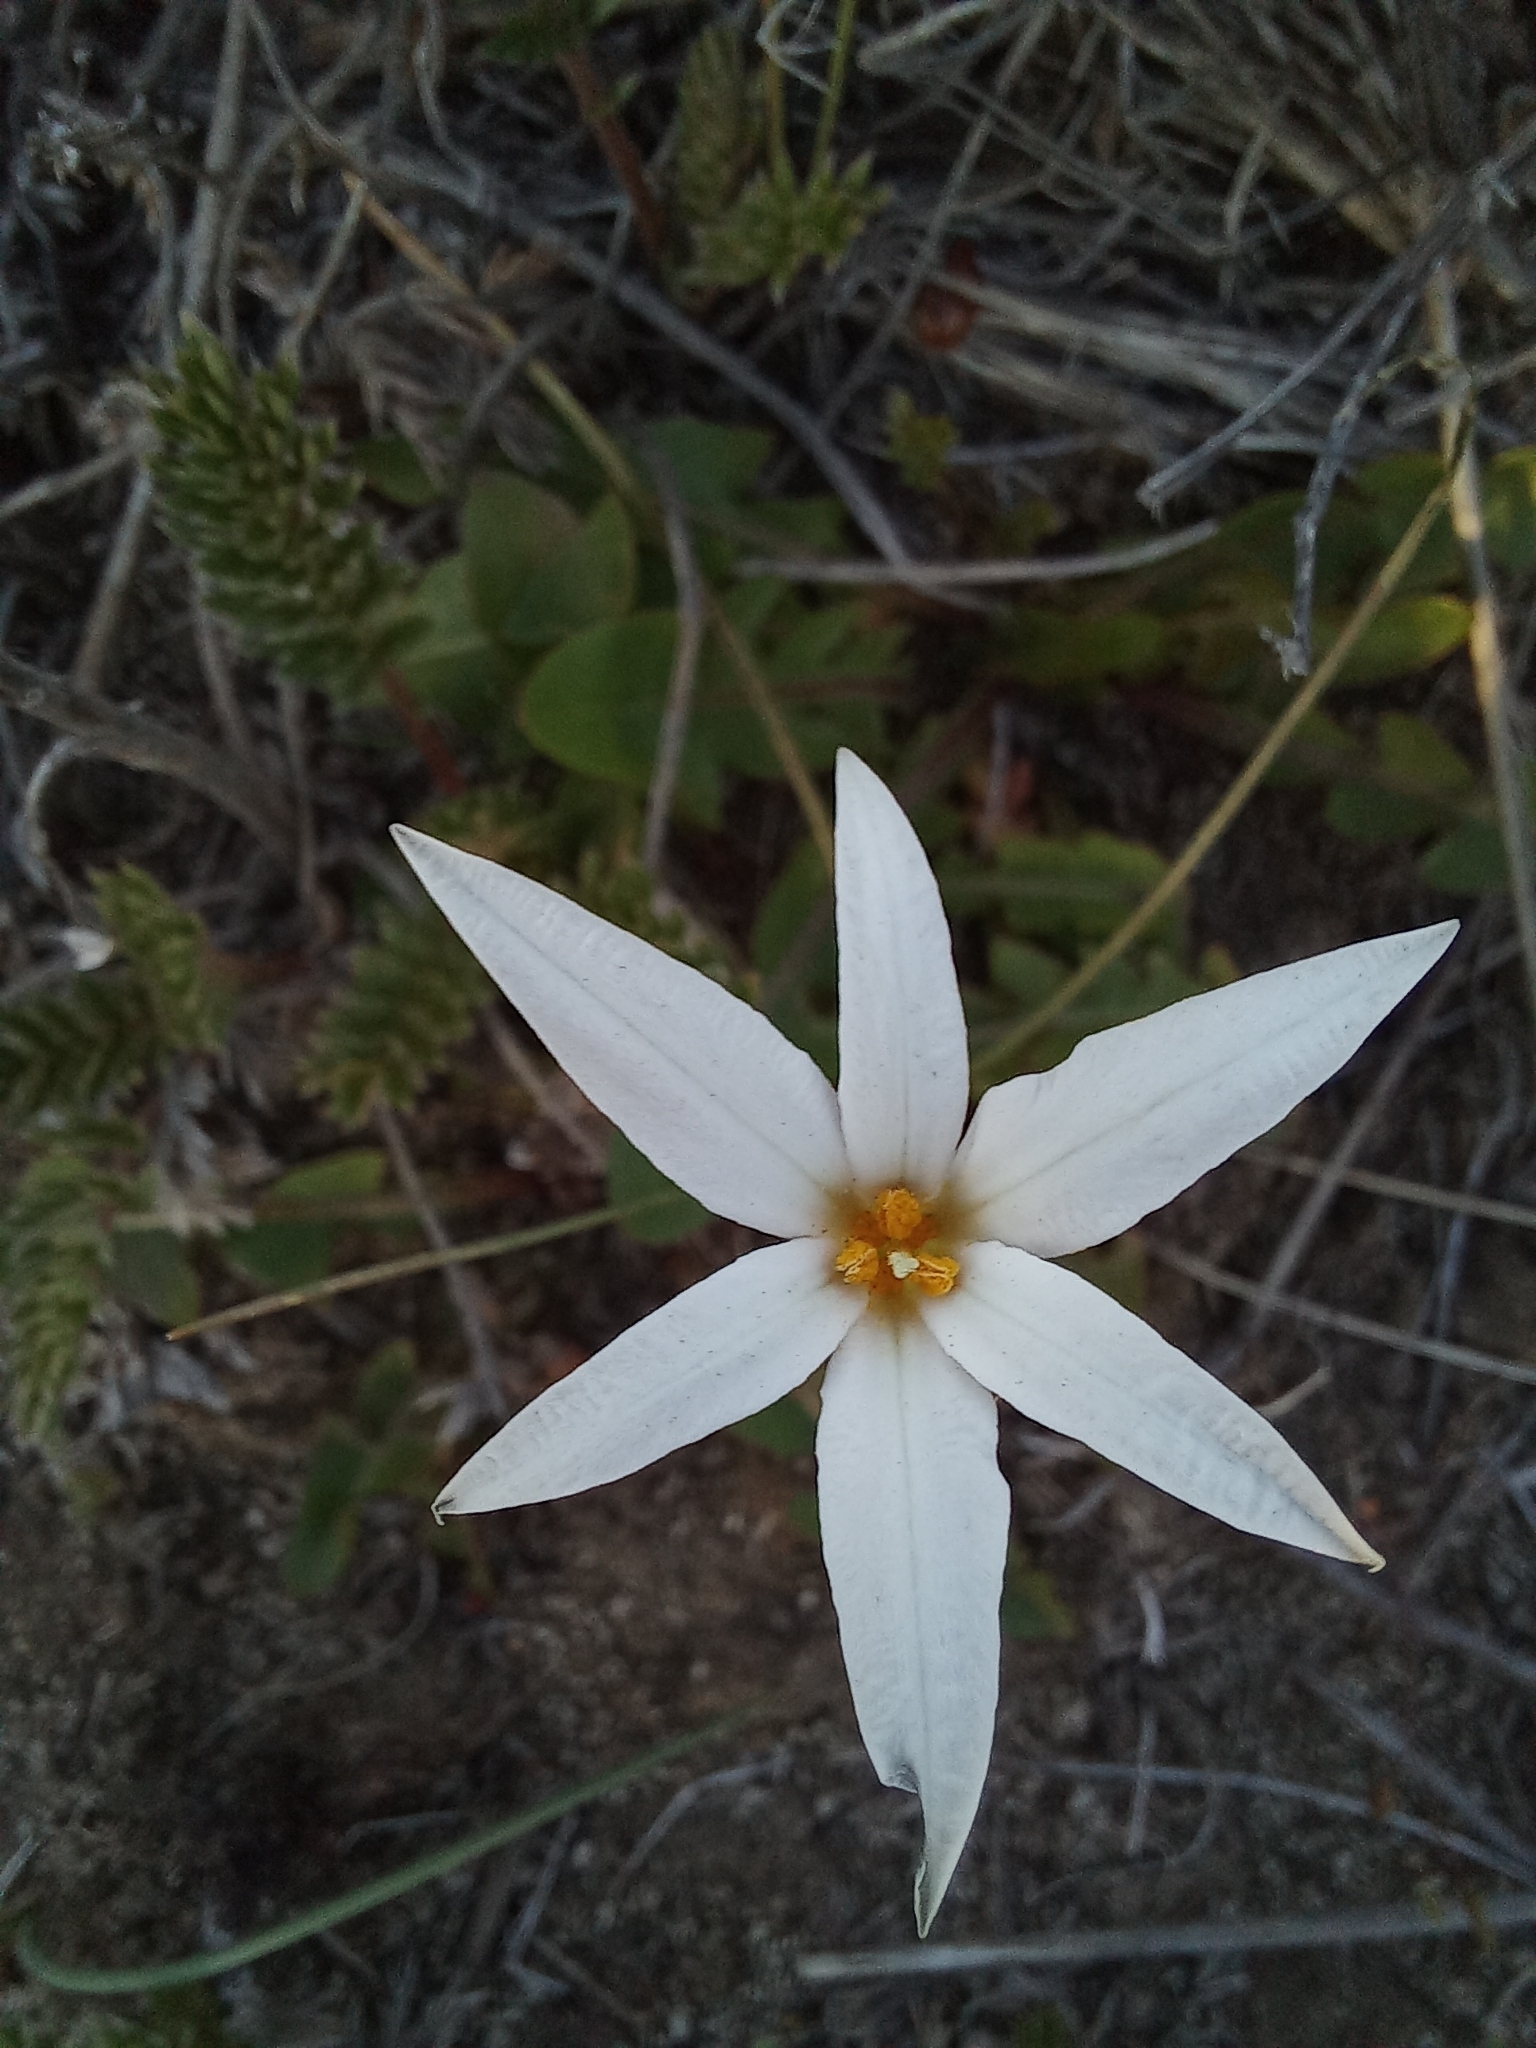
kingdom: Plantae
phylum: Tracheophyta
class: Liliopsida
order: Asparagales
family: Amaryllidaceae
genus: Tristagma
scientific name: Tristagma patagonicum
